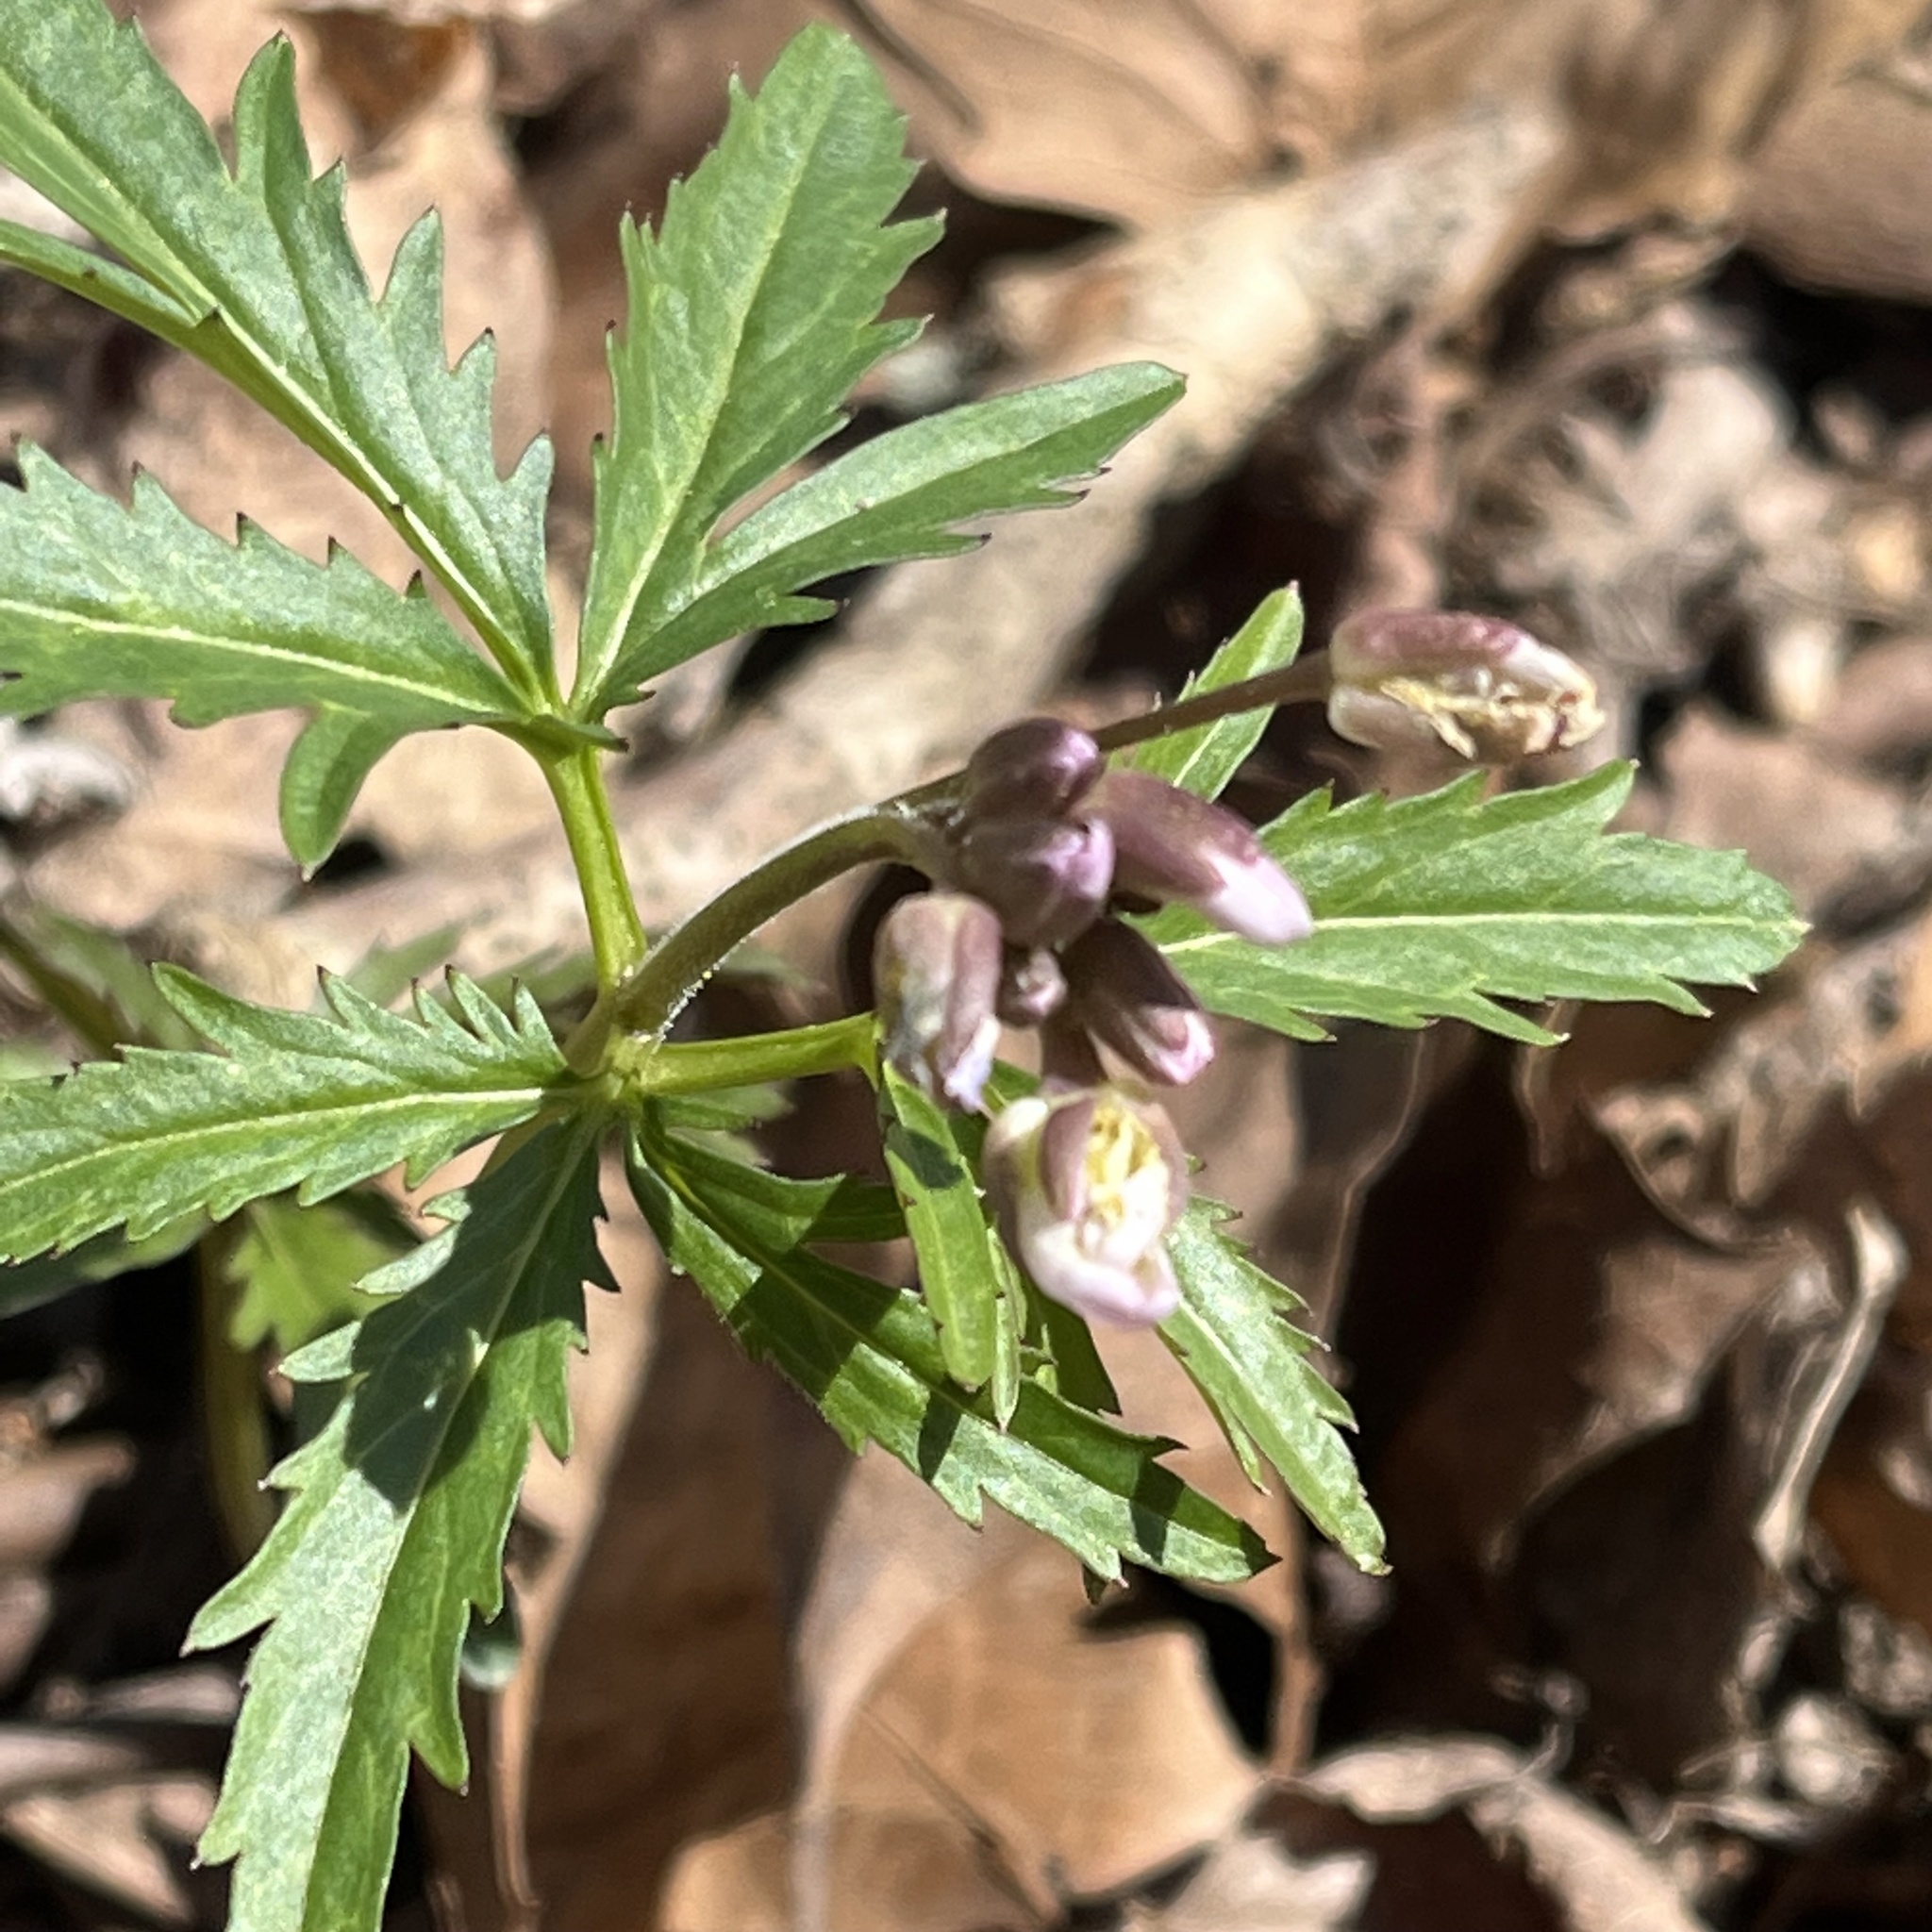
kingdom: Plantae
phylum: Tracheophyta
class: Magnoliopsida
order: Brassicales
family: Brassicaceae
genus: Cardamine
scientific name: Cardamine concatenata
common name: Cut-leaf toothcup
